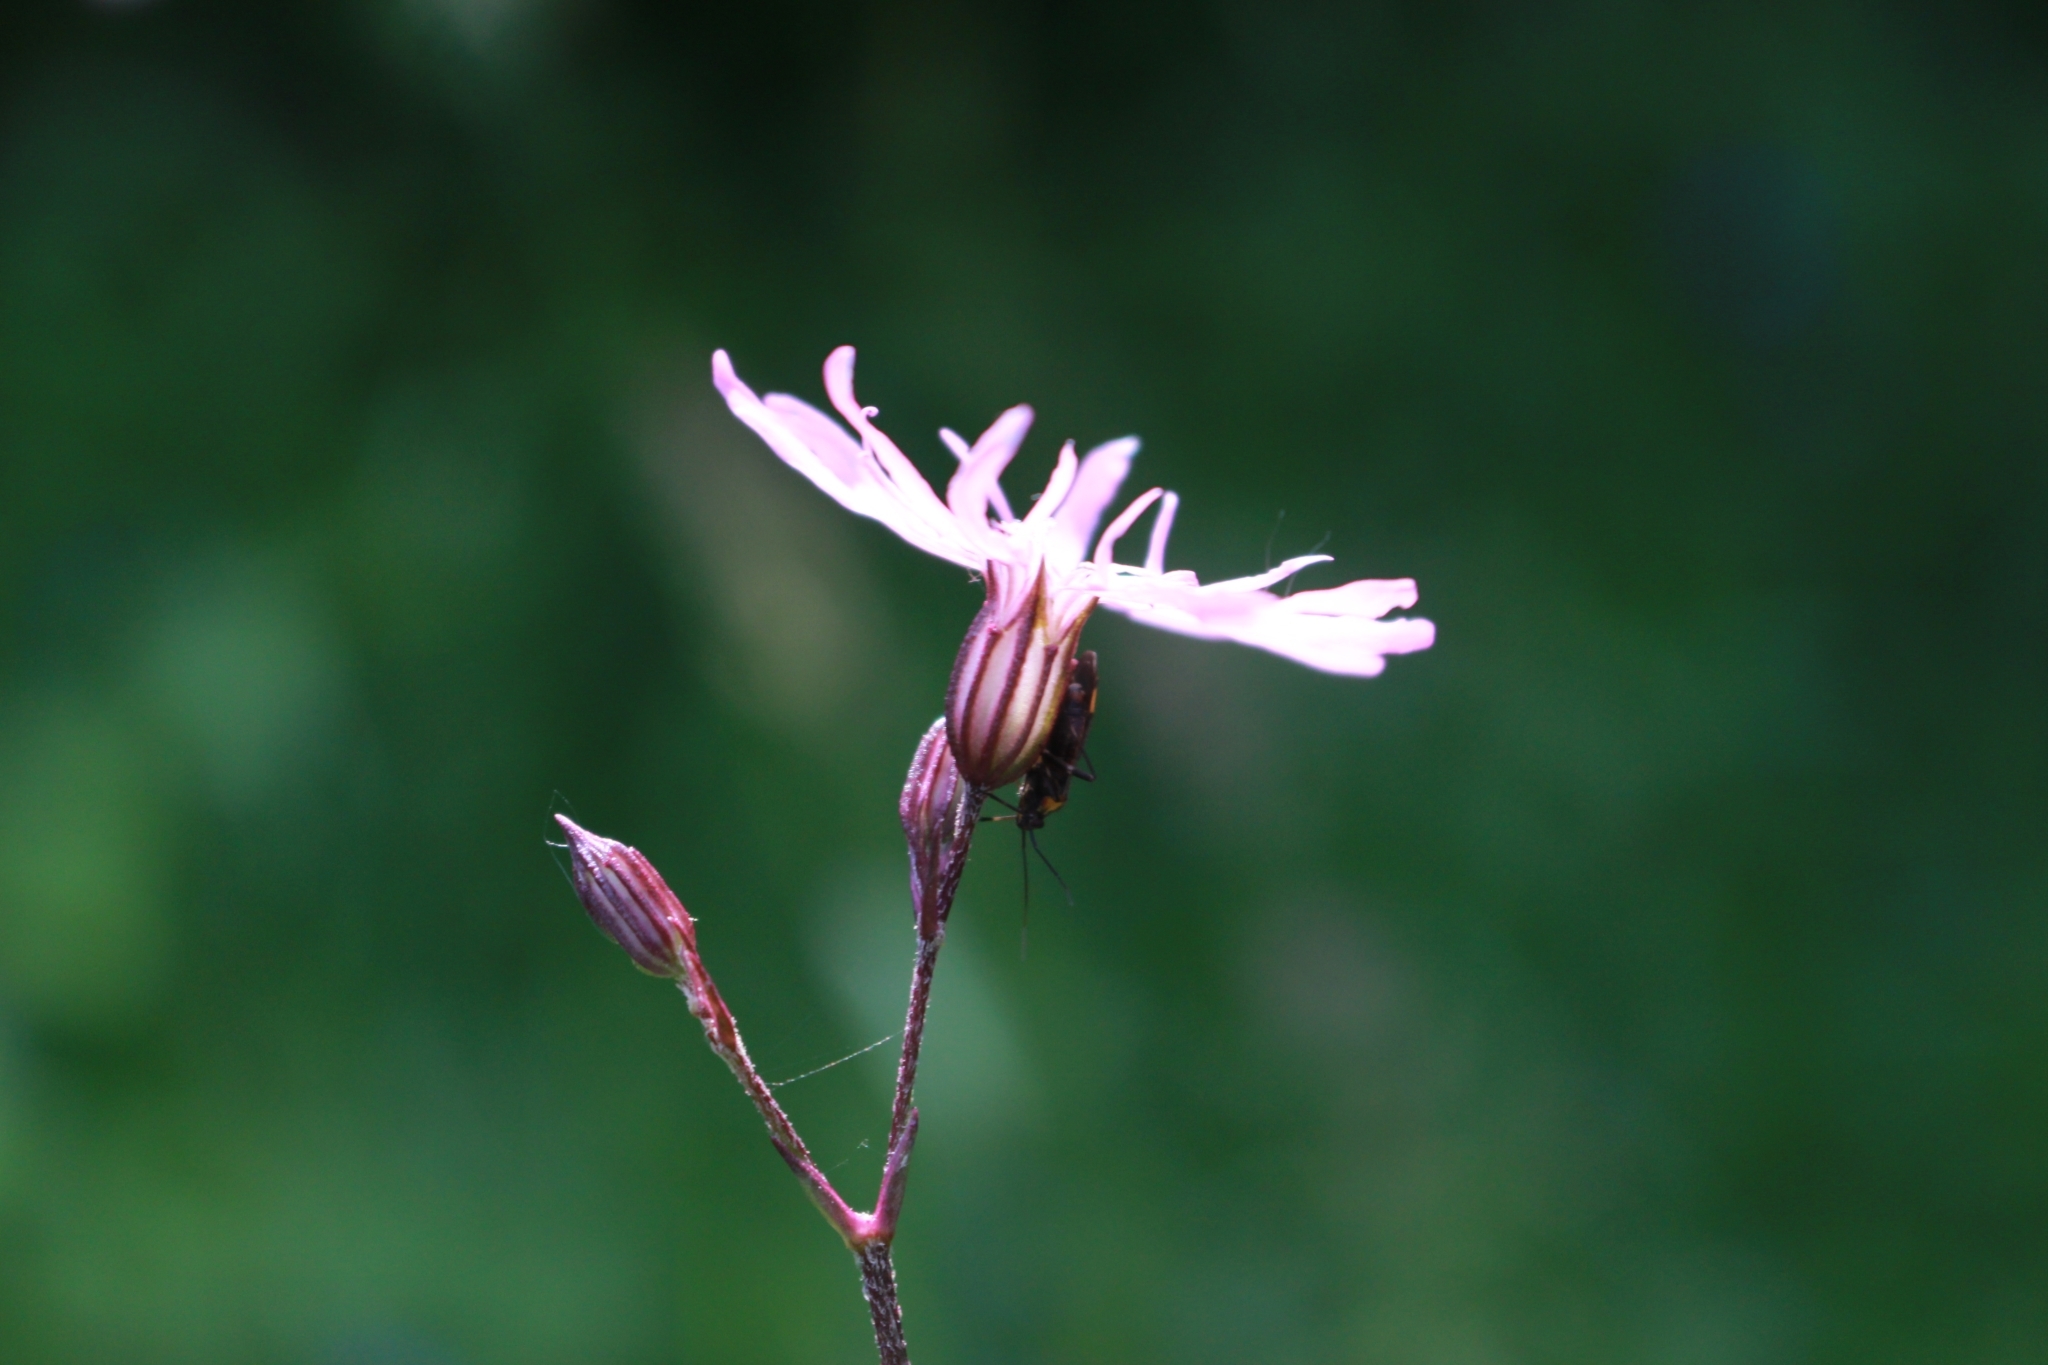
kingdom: Plantae
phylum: Tracheophyta
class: Magnoliopsida
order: Caryophyllales
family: Caryophyllaceae
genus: Silene
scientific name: Silene flos-cuculi
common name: Ragged-robin
